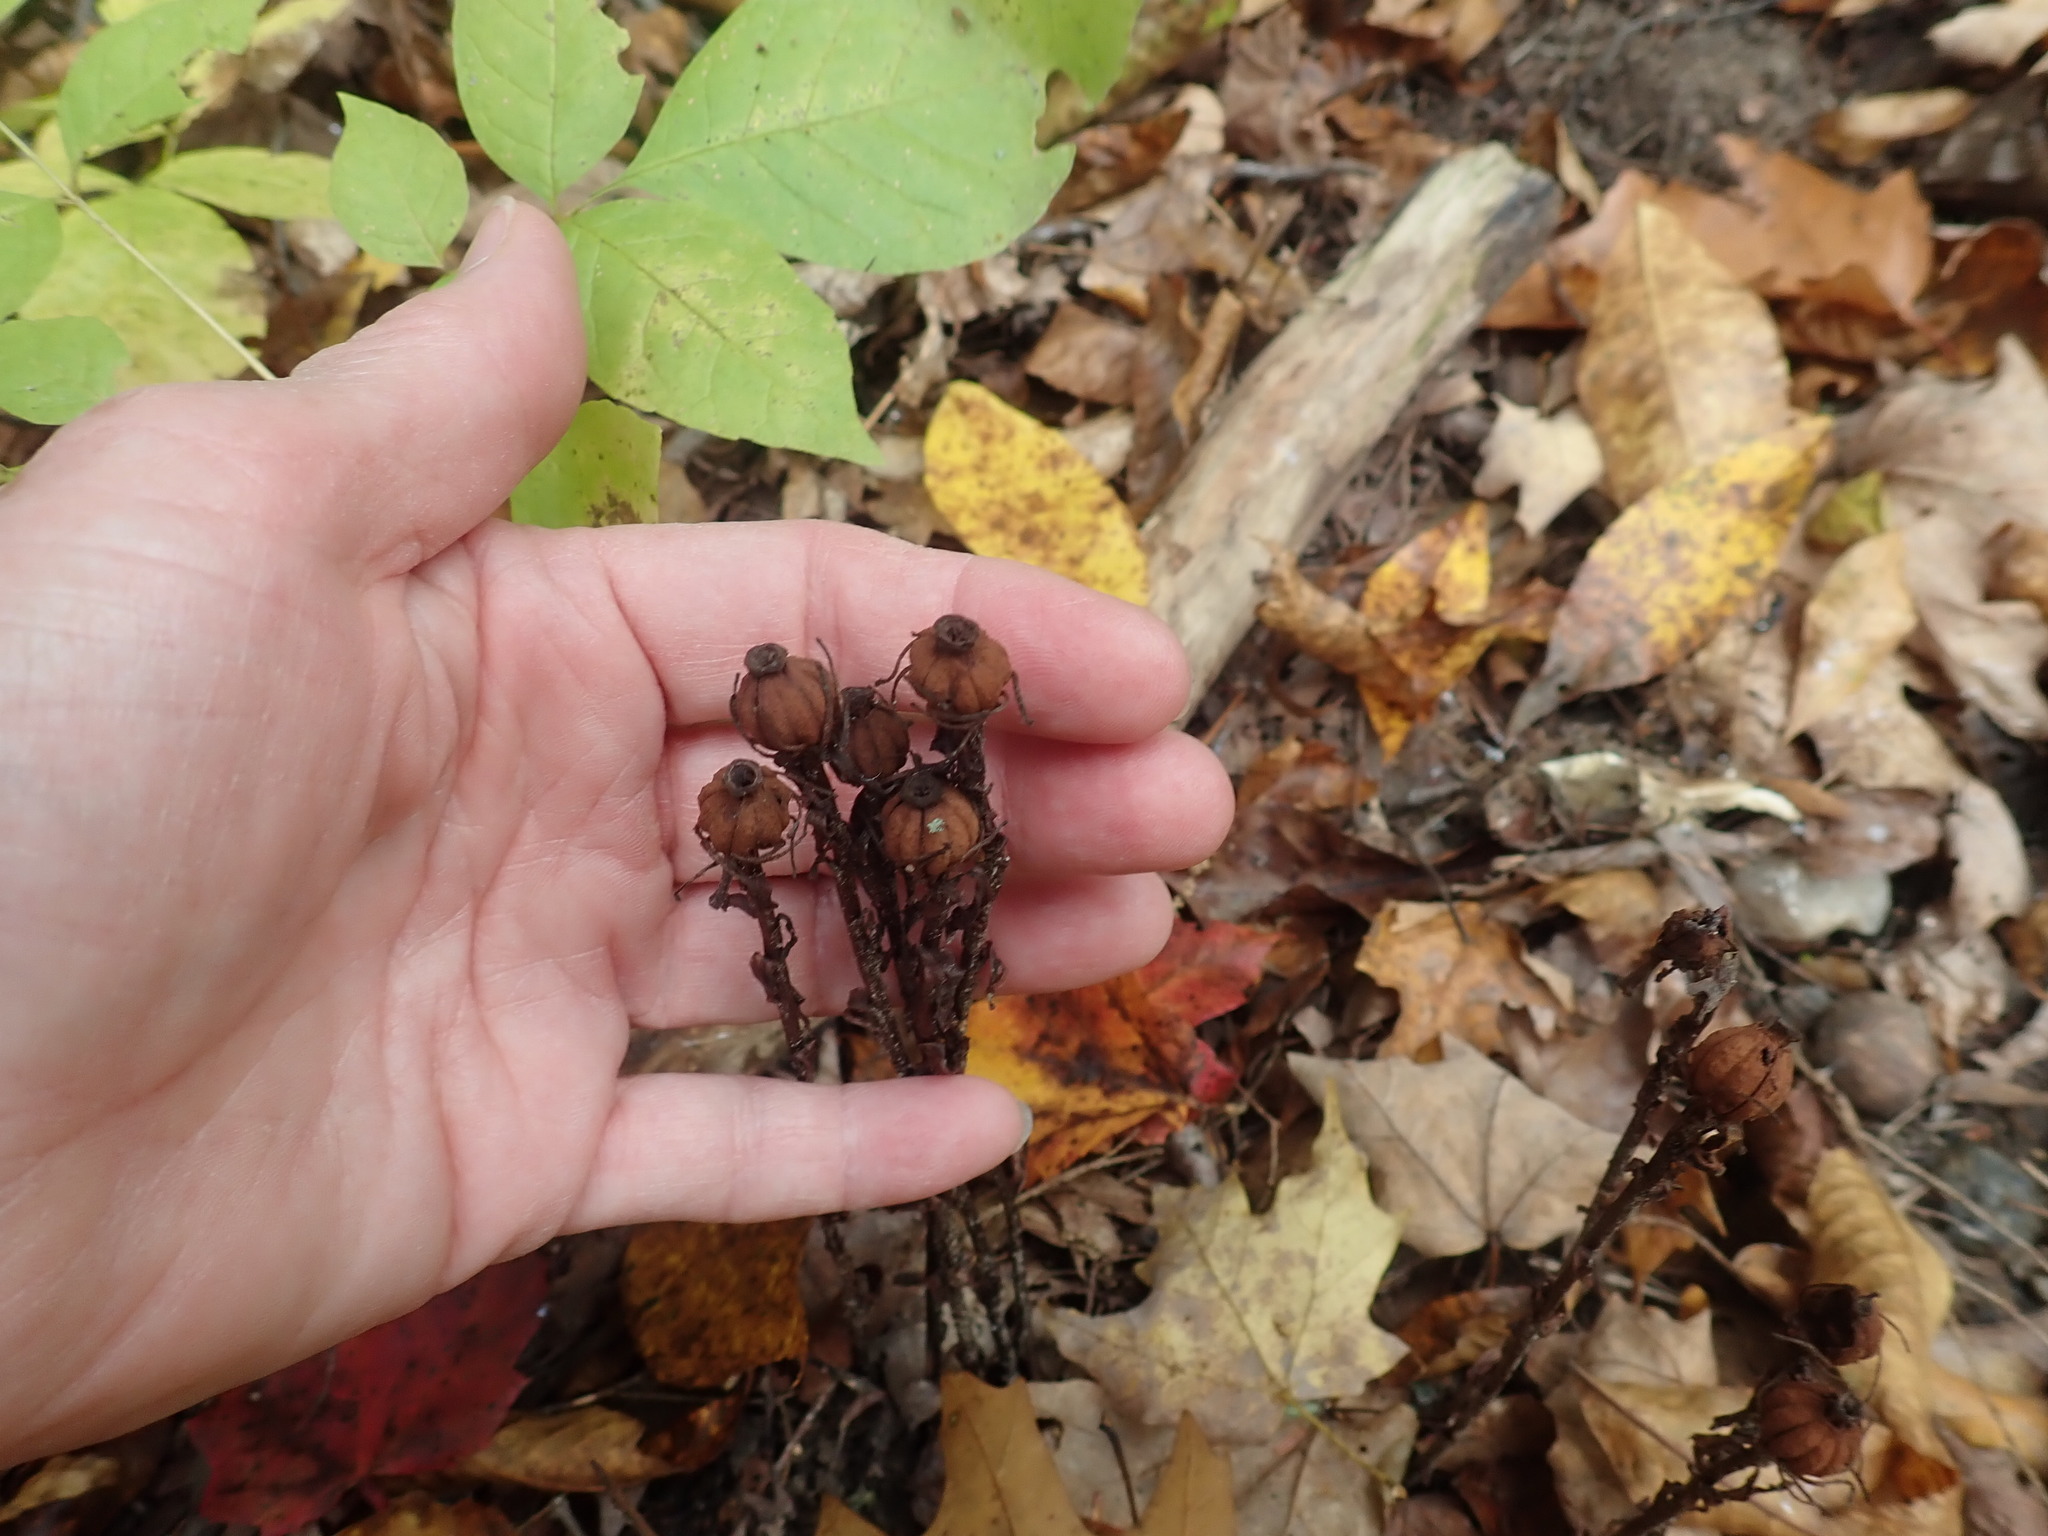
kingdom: Plantae
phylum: Tracheophyta
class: Magnoliopsida
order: Ericales
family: Ericaceae
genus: Monotropa
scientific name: Monotropa uniflora
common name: Convulsion root
